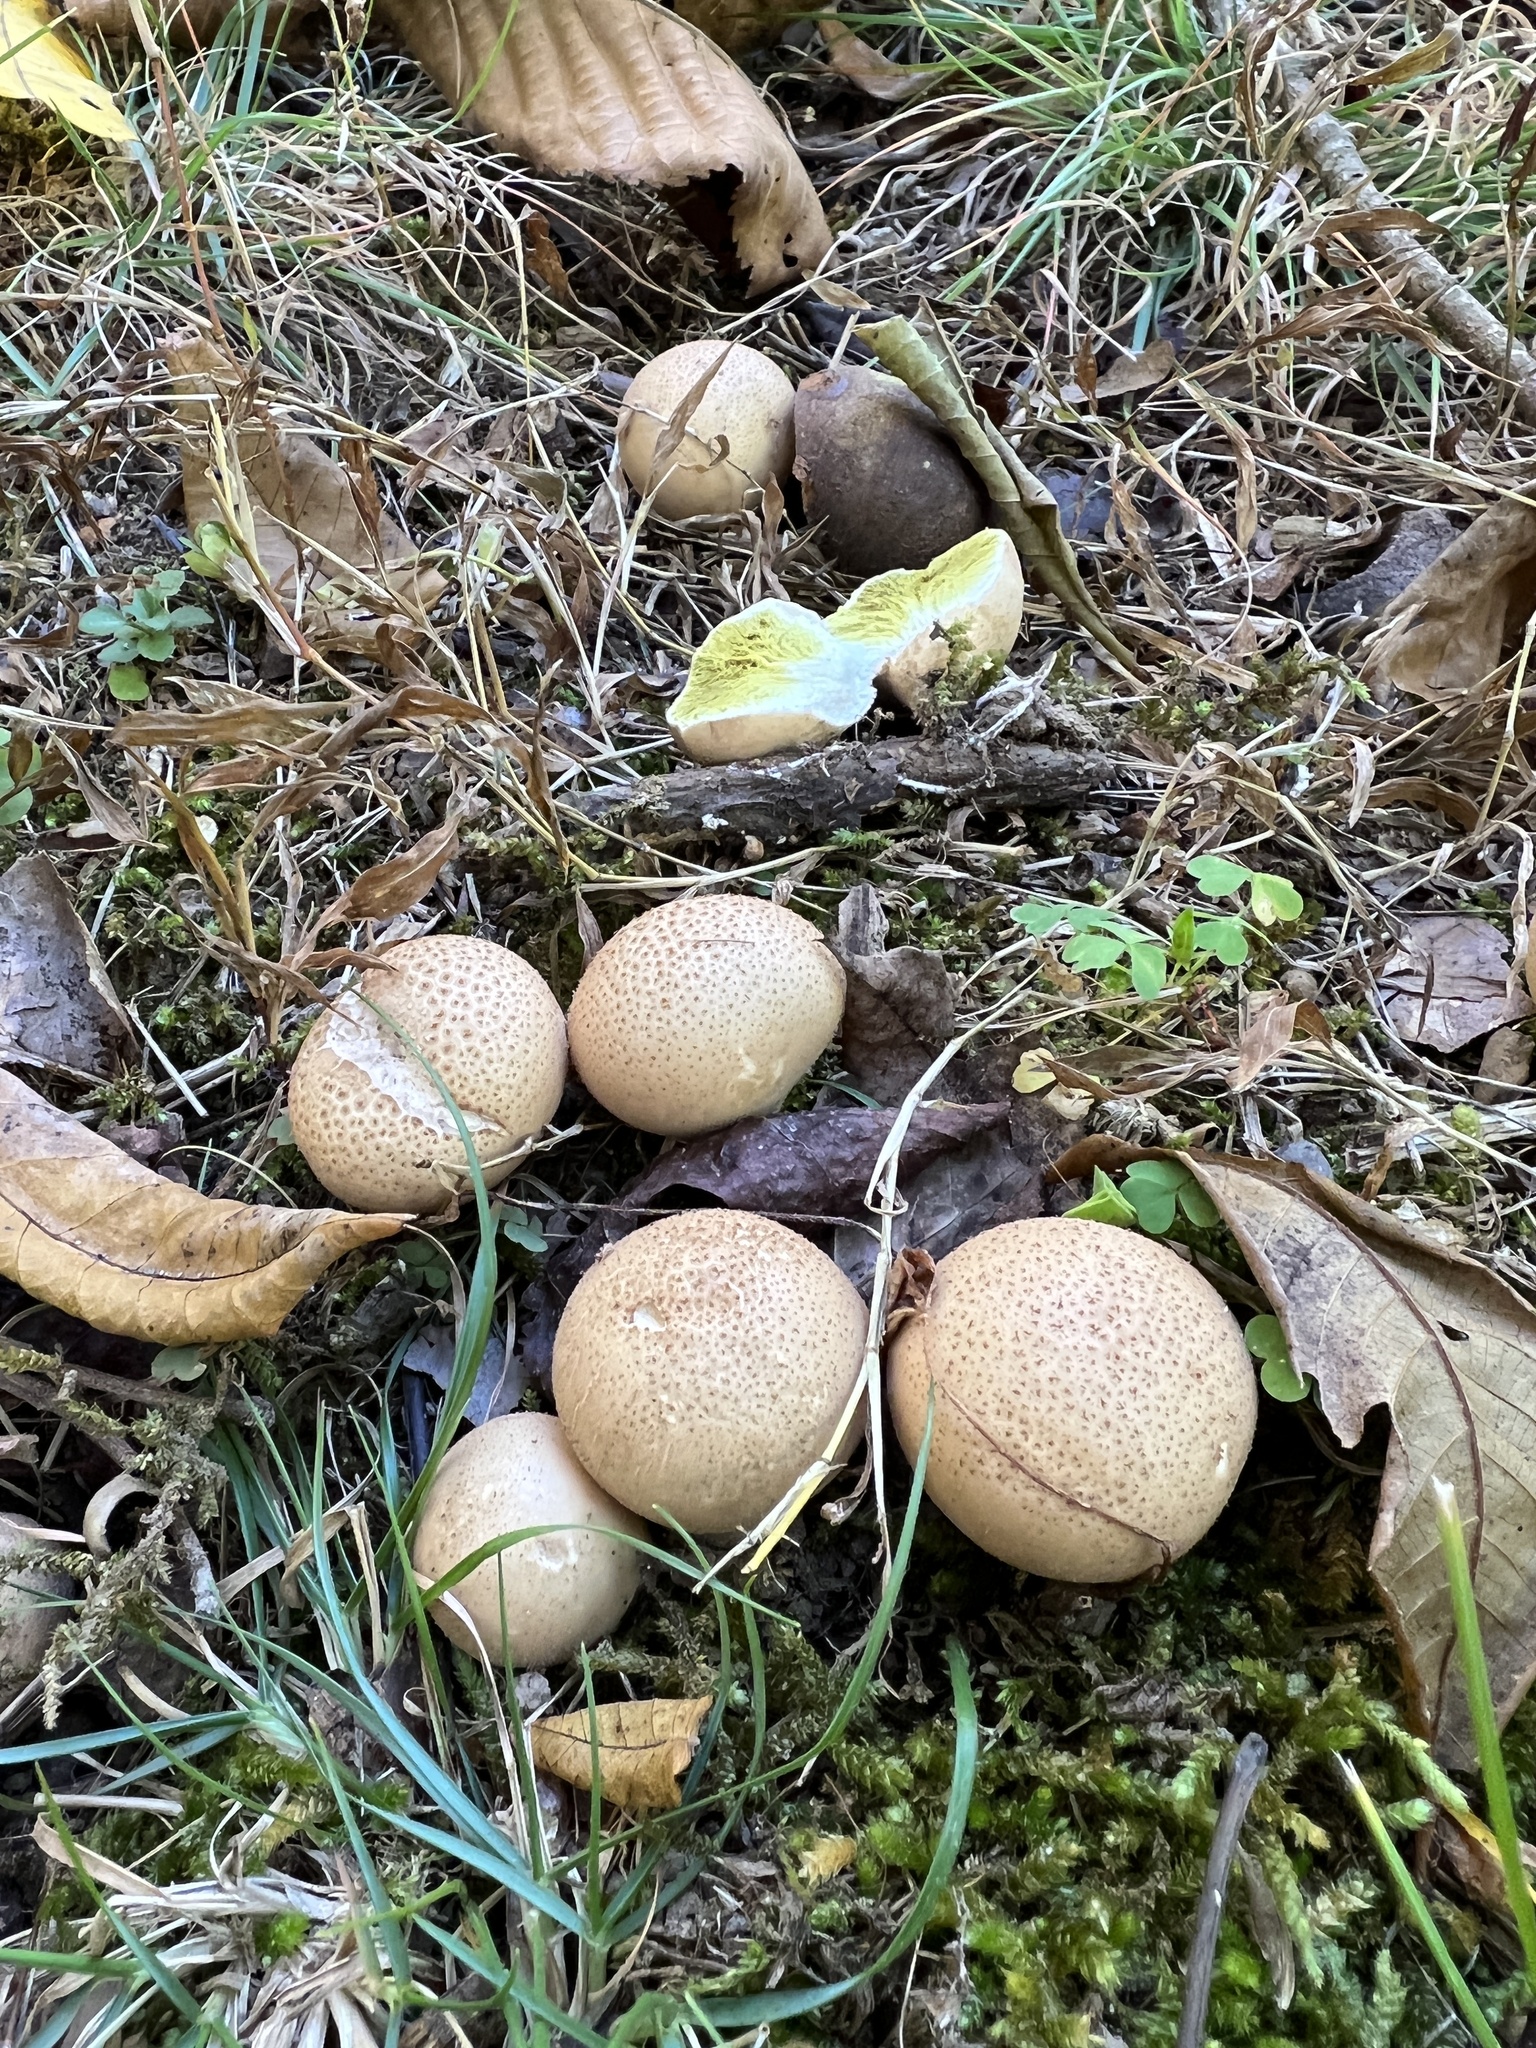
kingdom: Fungi
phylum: Basidiomycota
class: Agaricomycetes
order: Agaricales
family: Lycoperdaceae
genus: Apioperdon
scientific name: Apioperdon pyriforme
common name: Pear-shaped puffball
